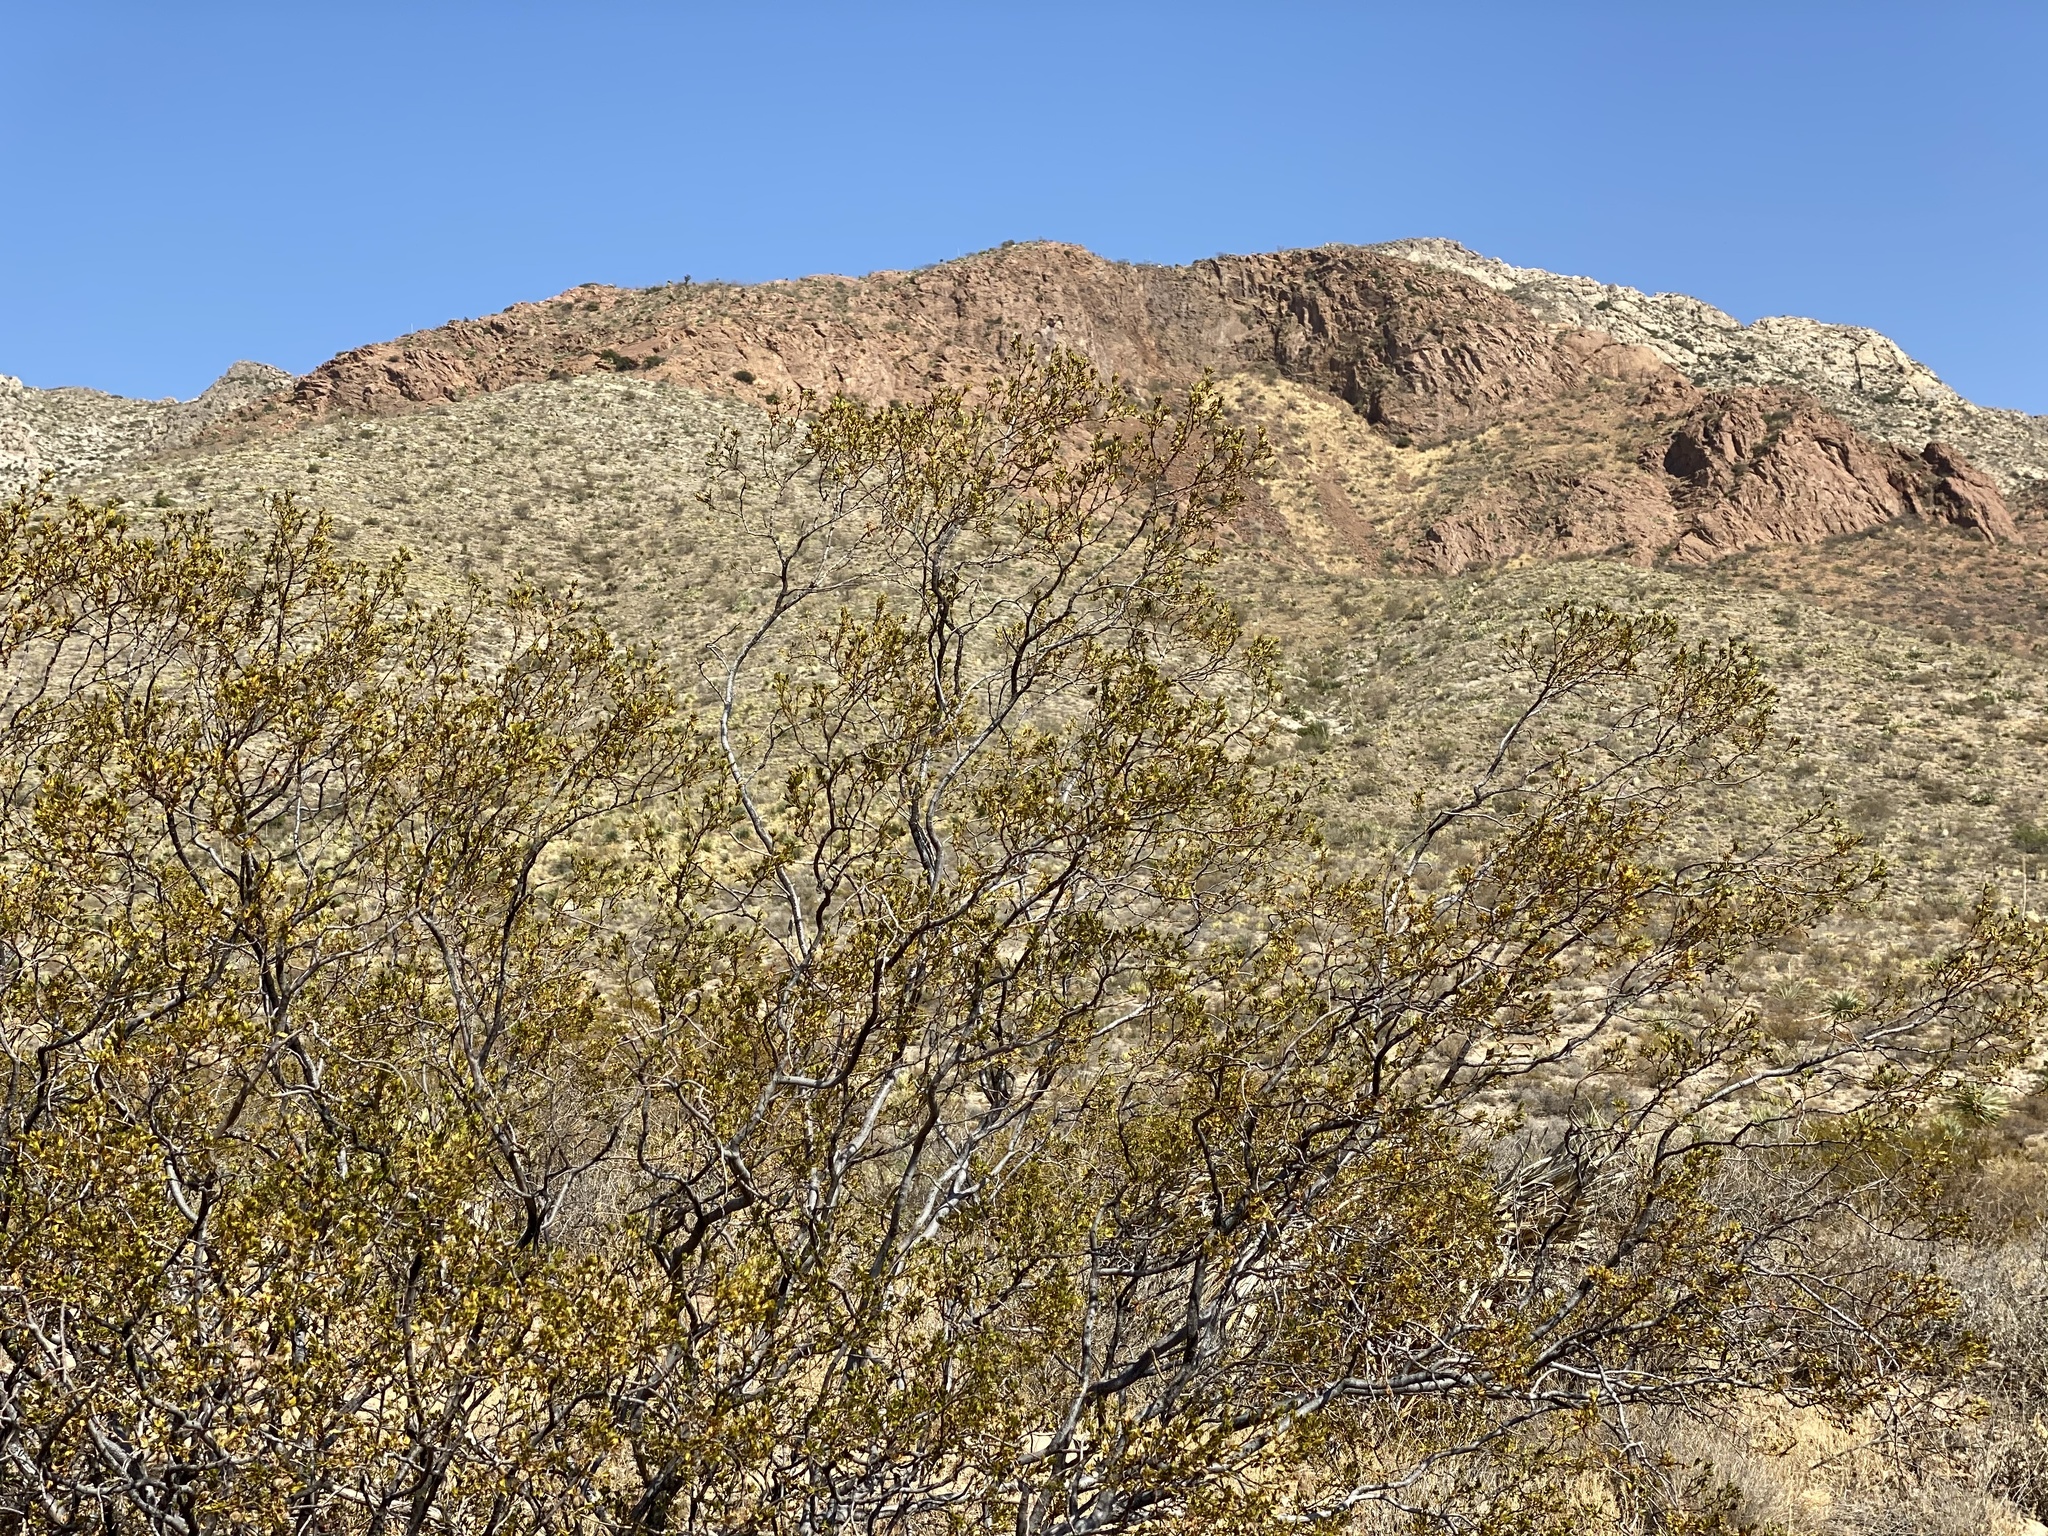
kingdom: Plantae
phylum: Tracheophyta
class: Magnoliopsida
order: Zygophyllales
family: Zygophyllaceae
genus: Larrea
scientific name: Larrea tridentata
